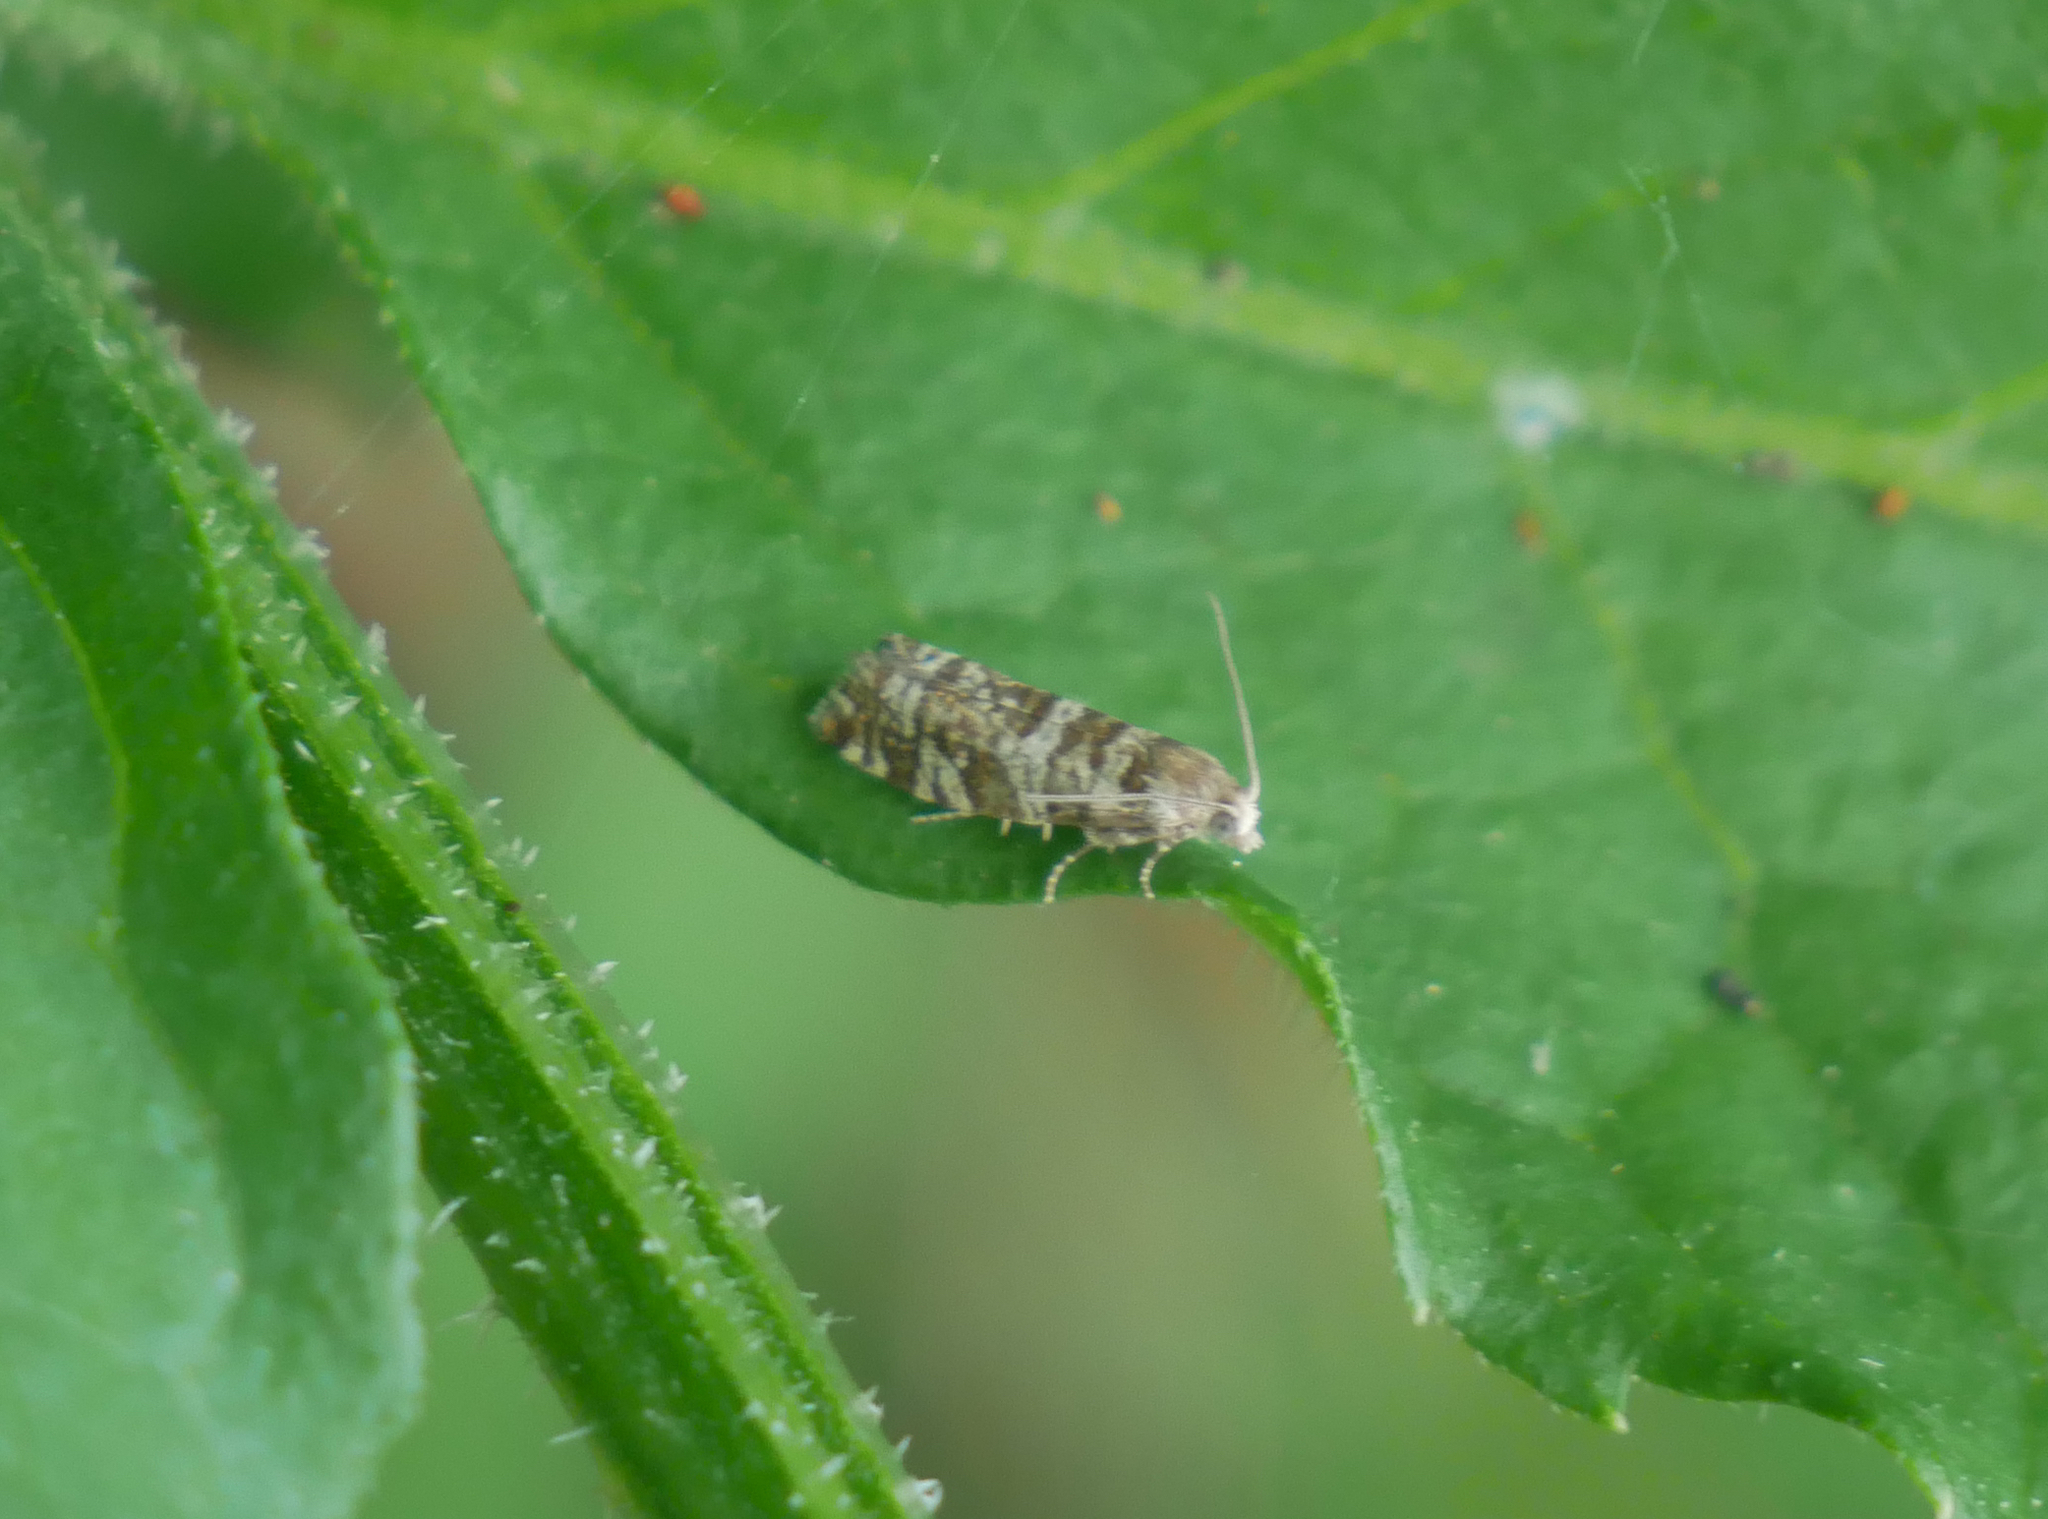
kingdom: Animalia
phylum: Arthropoda
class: Insecta
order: Lepidoptera
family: Tortricidae
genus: Epinotia
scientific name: Epinotia tedella
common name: Common spruce bell
